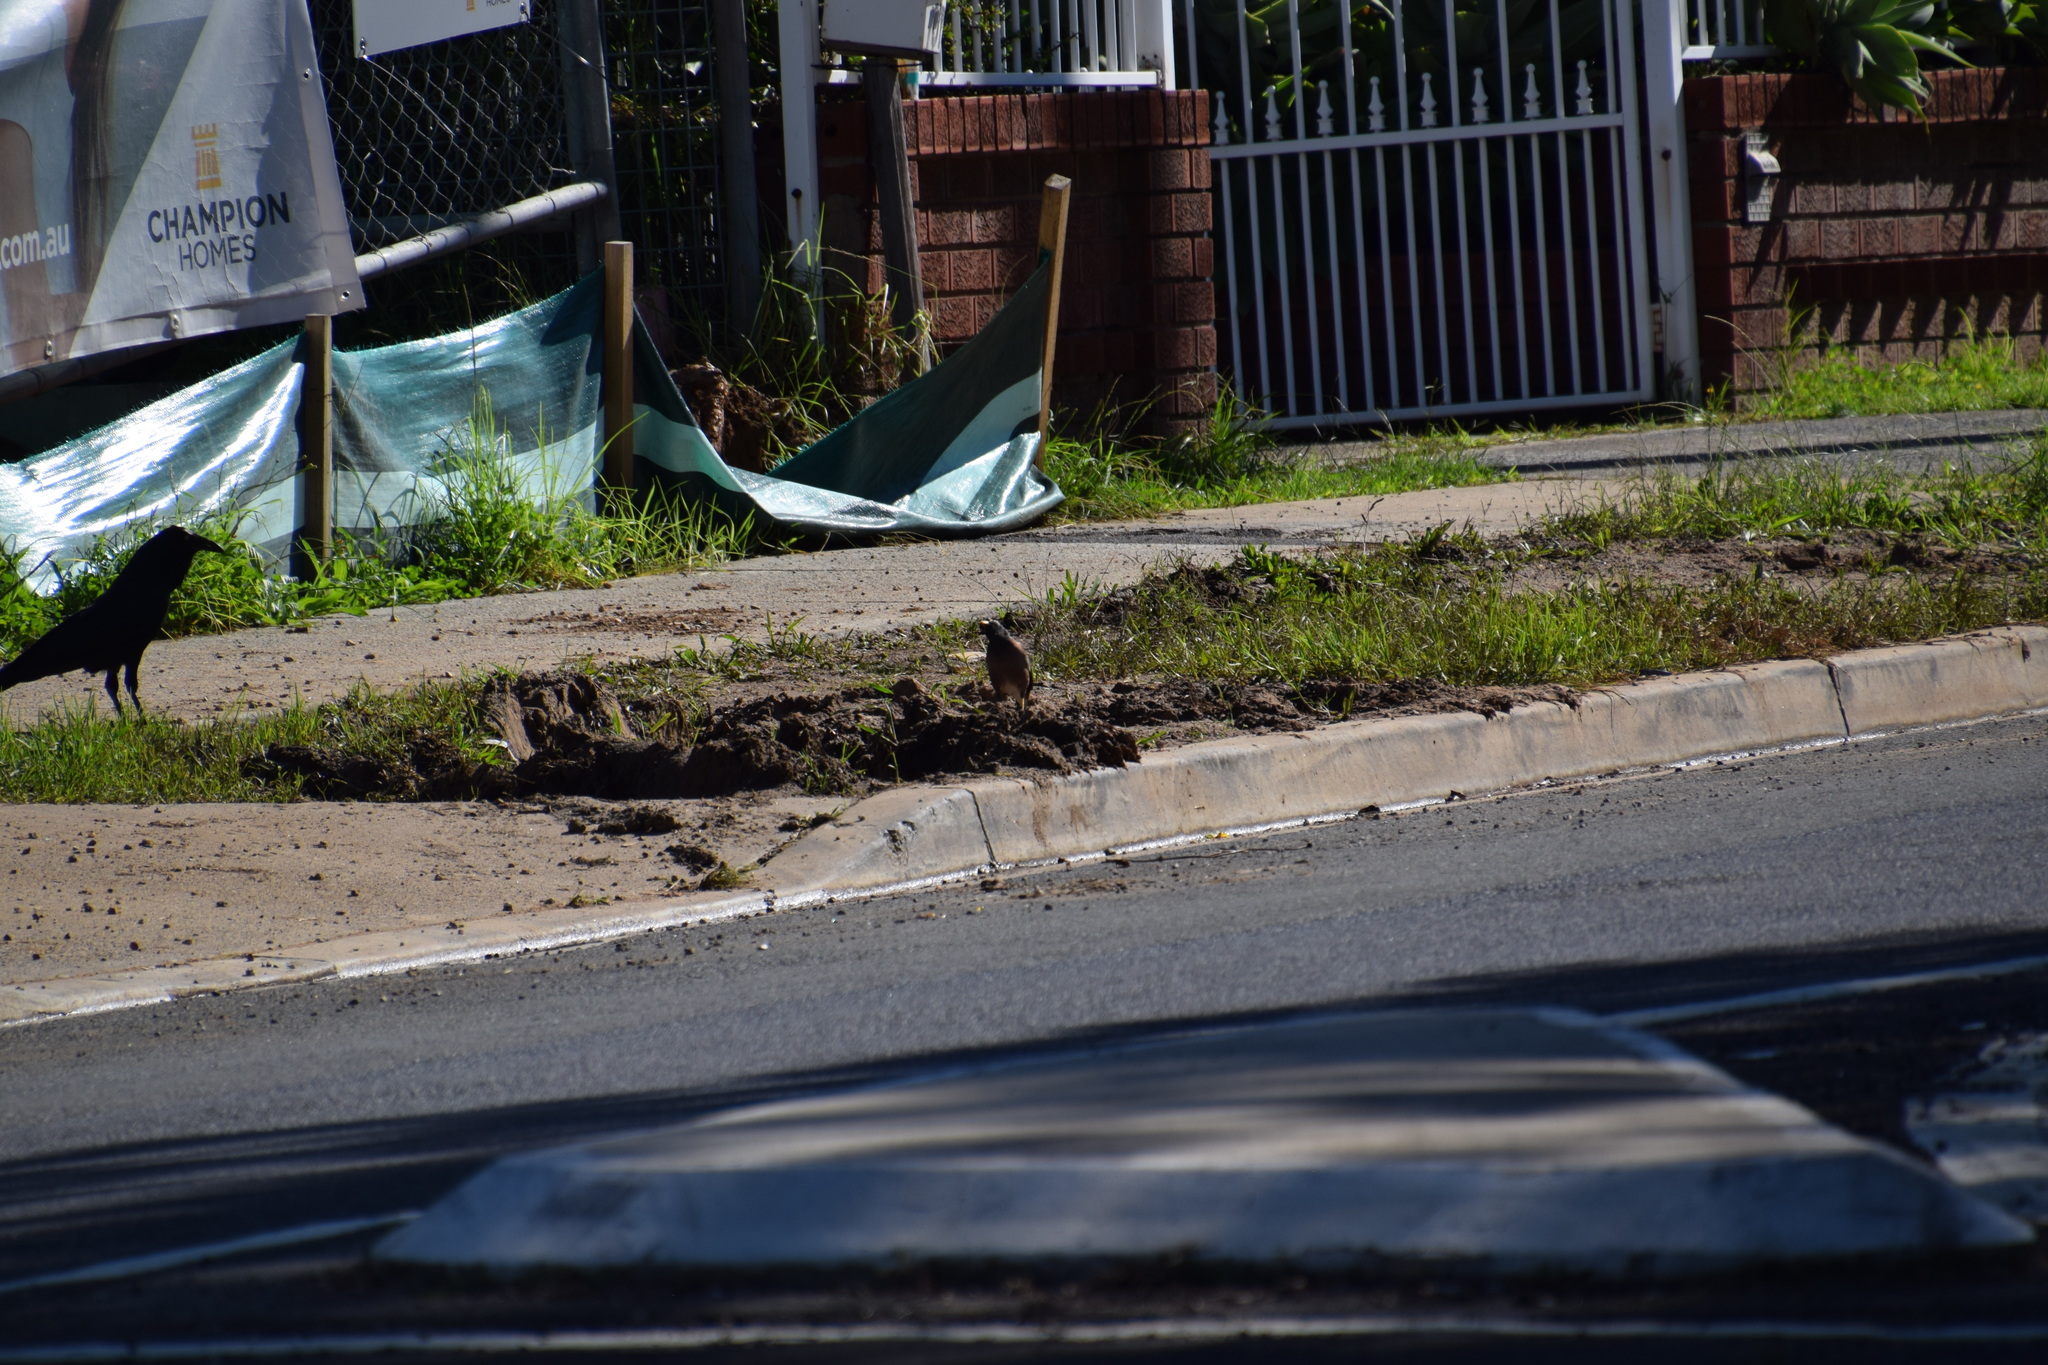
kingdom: Animalia
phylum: Chordata
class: Aves
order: Passeriformes
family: Sturnidae
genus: Acridotheres
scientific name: Acridotheres tristis
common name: Common myna
